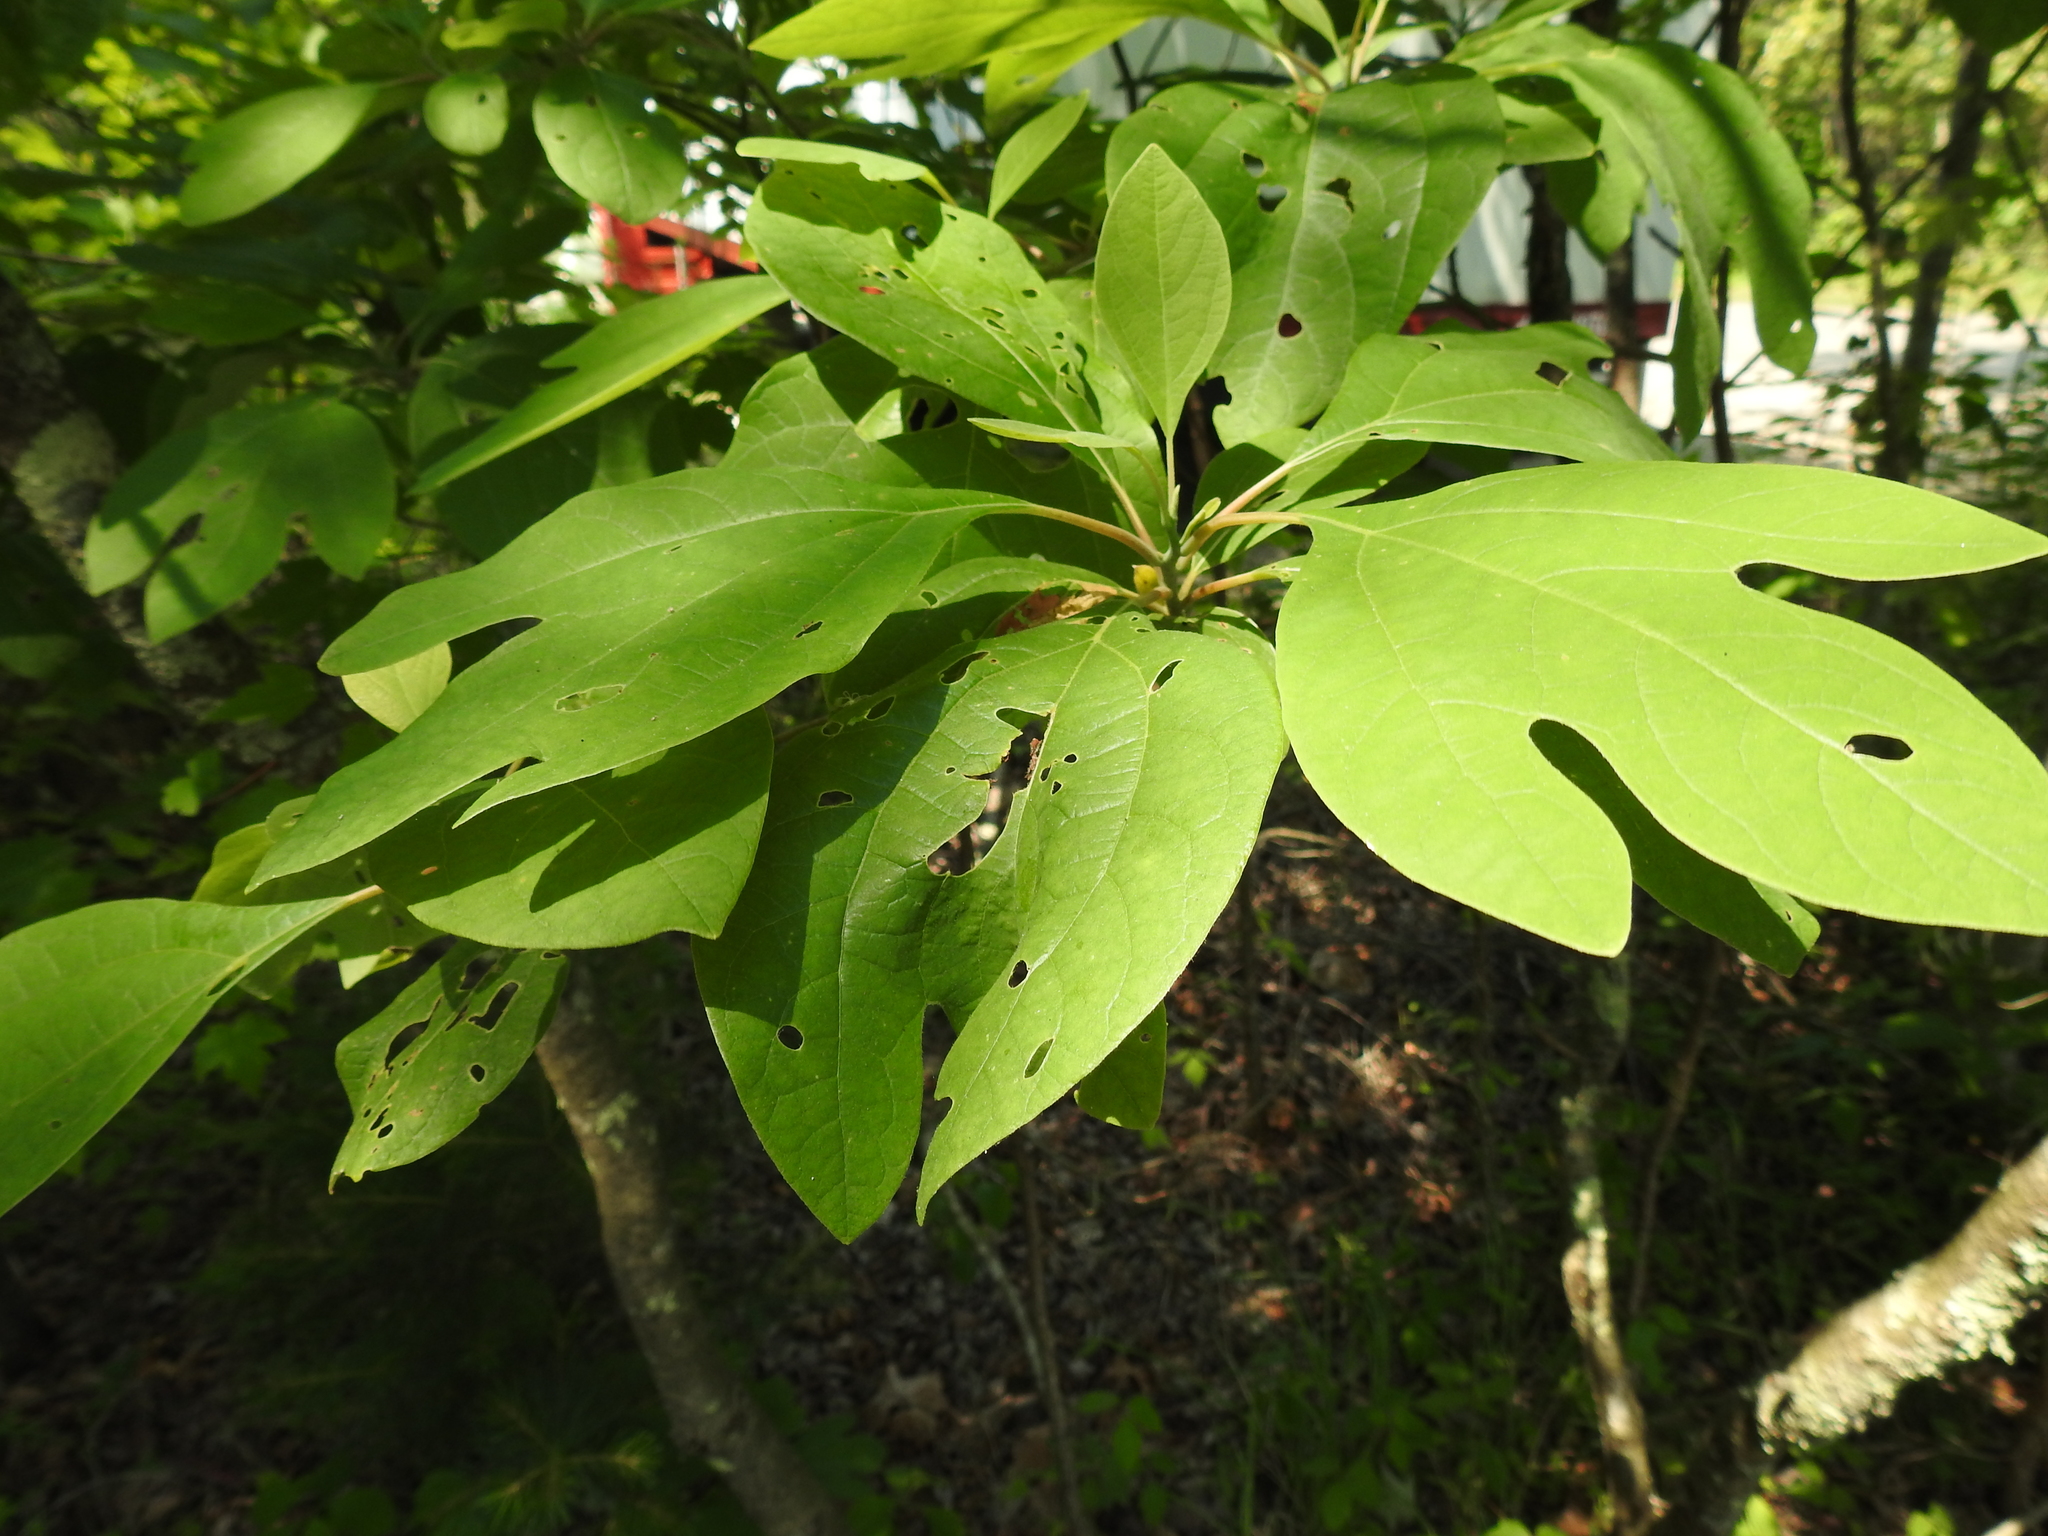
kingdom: Plantae
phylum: Tracheophyta
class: Magnoliopsida
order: Laurales
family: Lauraceae
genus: Sassafras
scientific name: Sassafras albidum
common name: Sassafras
